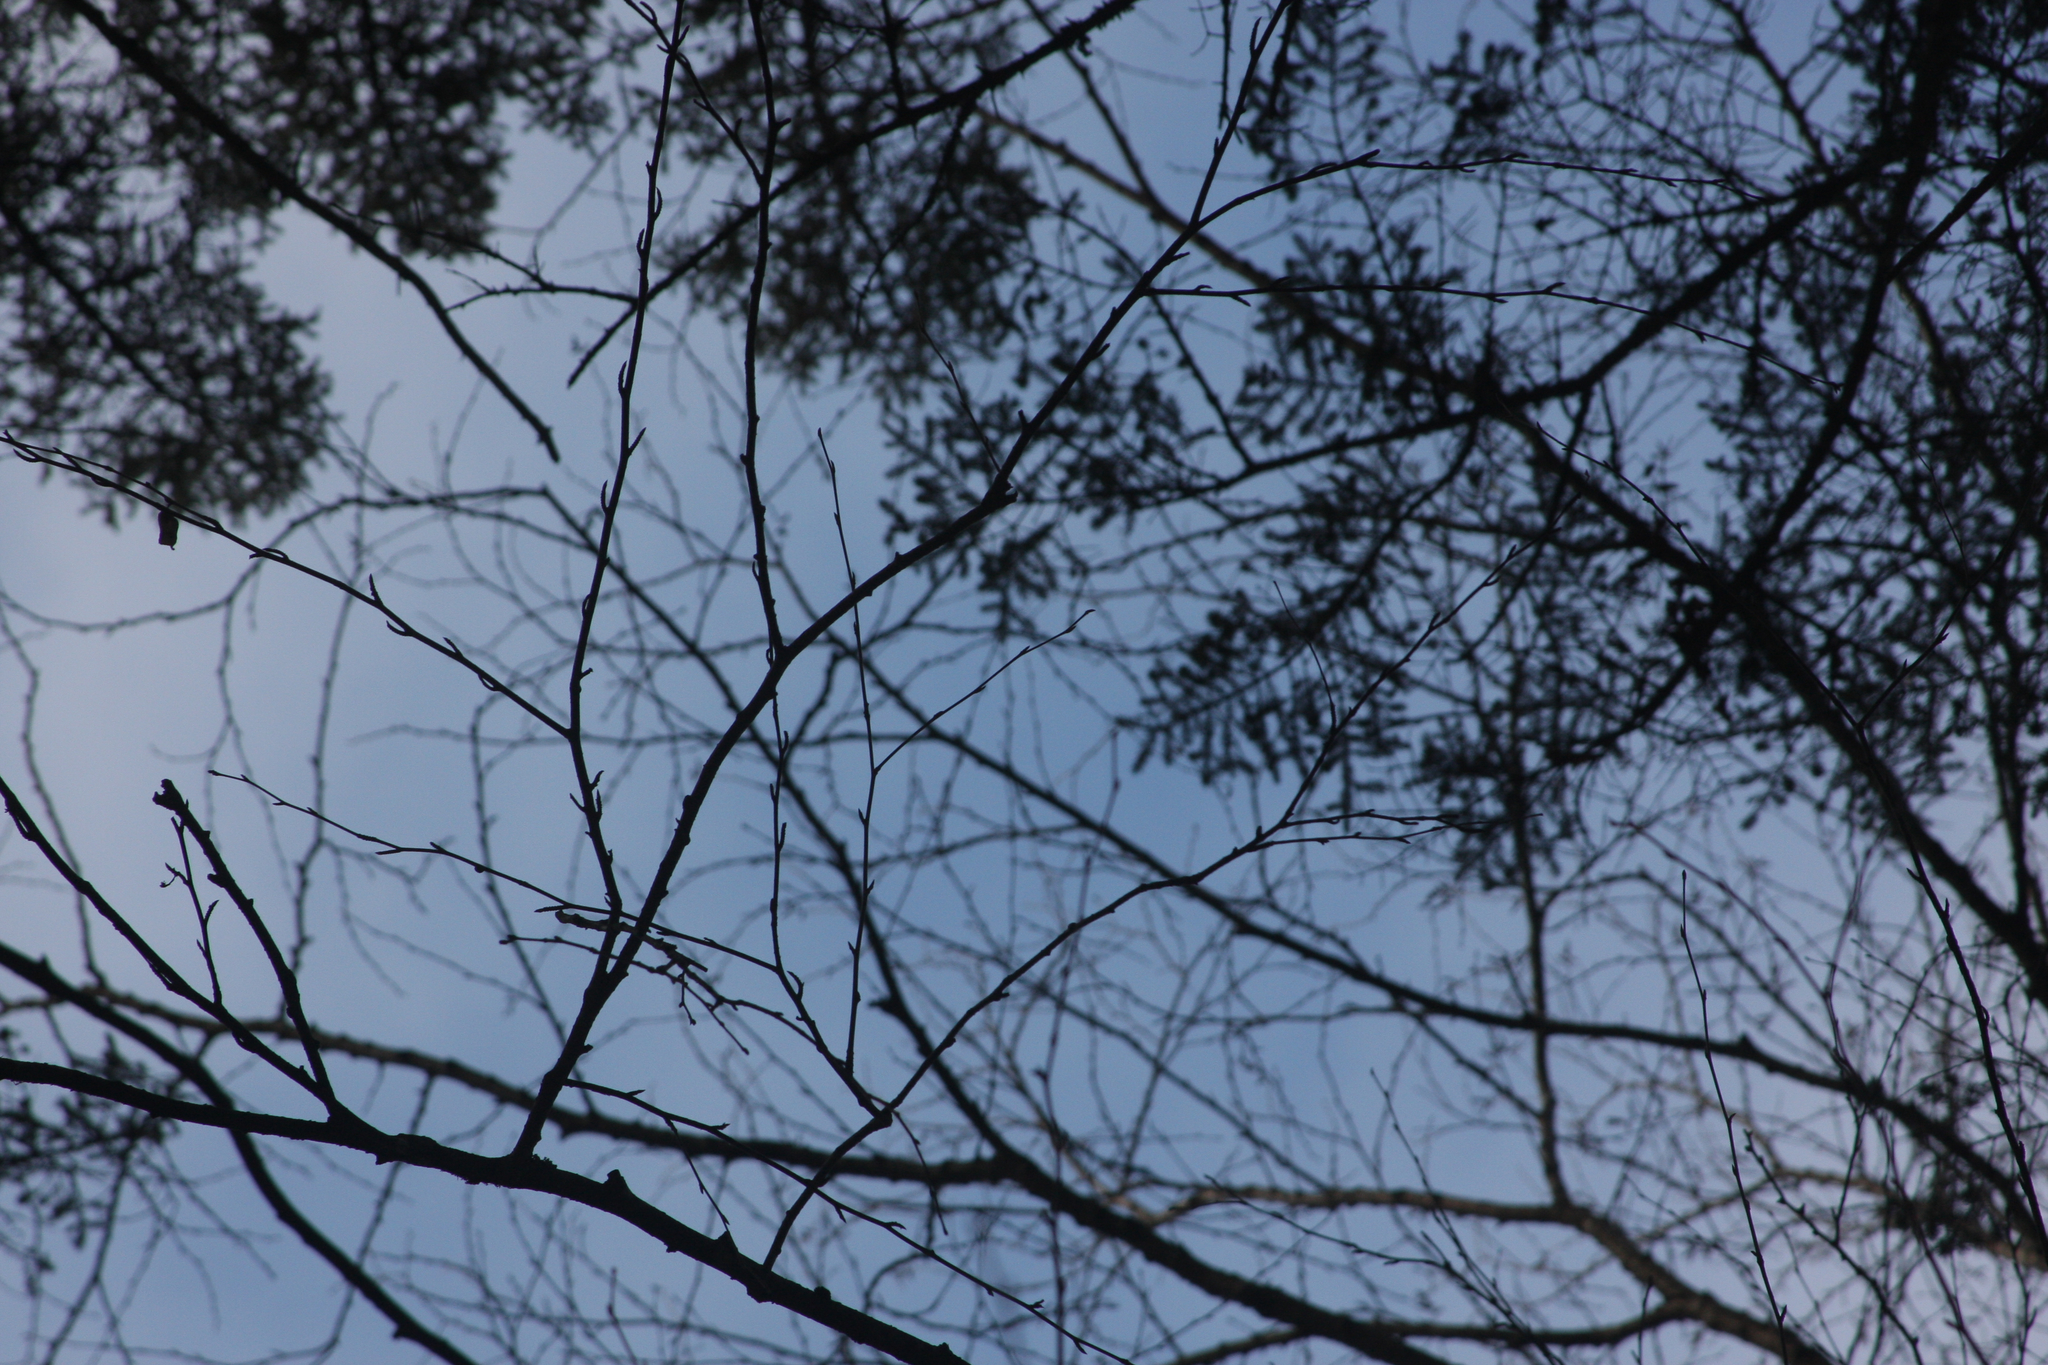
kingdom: Plantae
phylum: Tracheophyta
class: Magnoliopsida
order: Fagales
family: Betulaceae
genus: Betula
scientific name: Betula alleghaniensis
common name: Yellow birch
